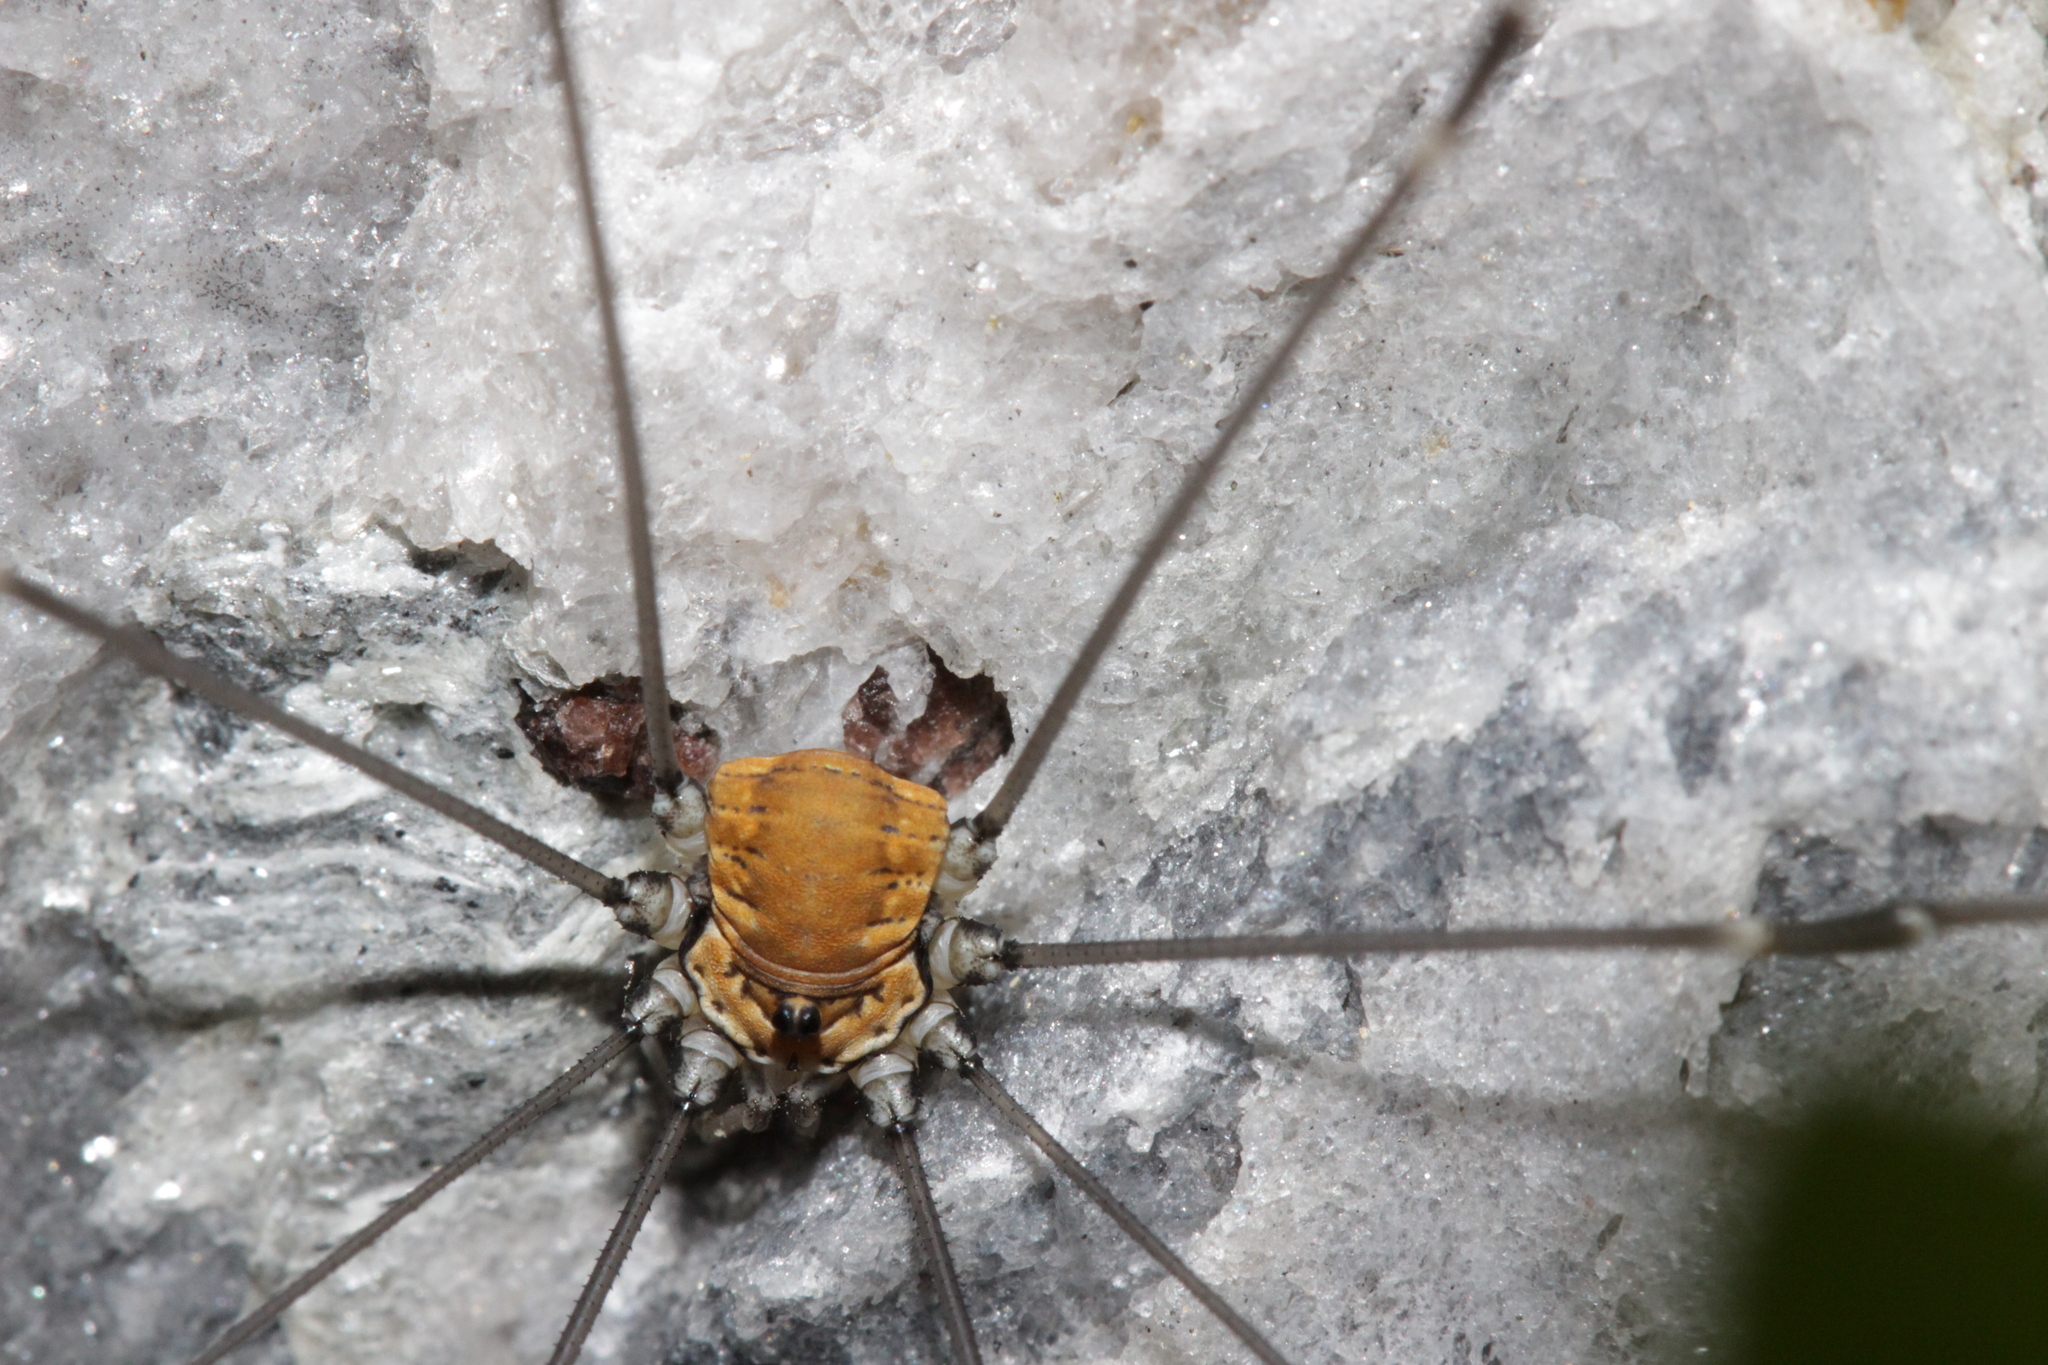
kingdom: Animalia
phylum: Arthropoda
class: Arachnida
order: Opiliones
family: Sclerosomatidae
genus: Leiobunum
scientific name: Leiobunum limbatum
